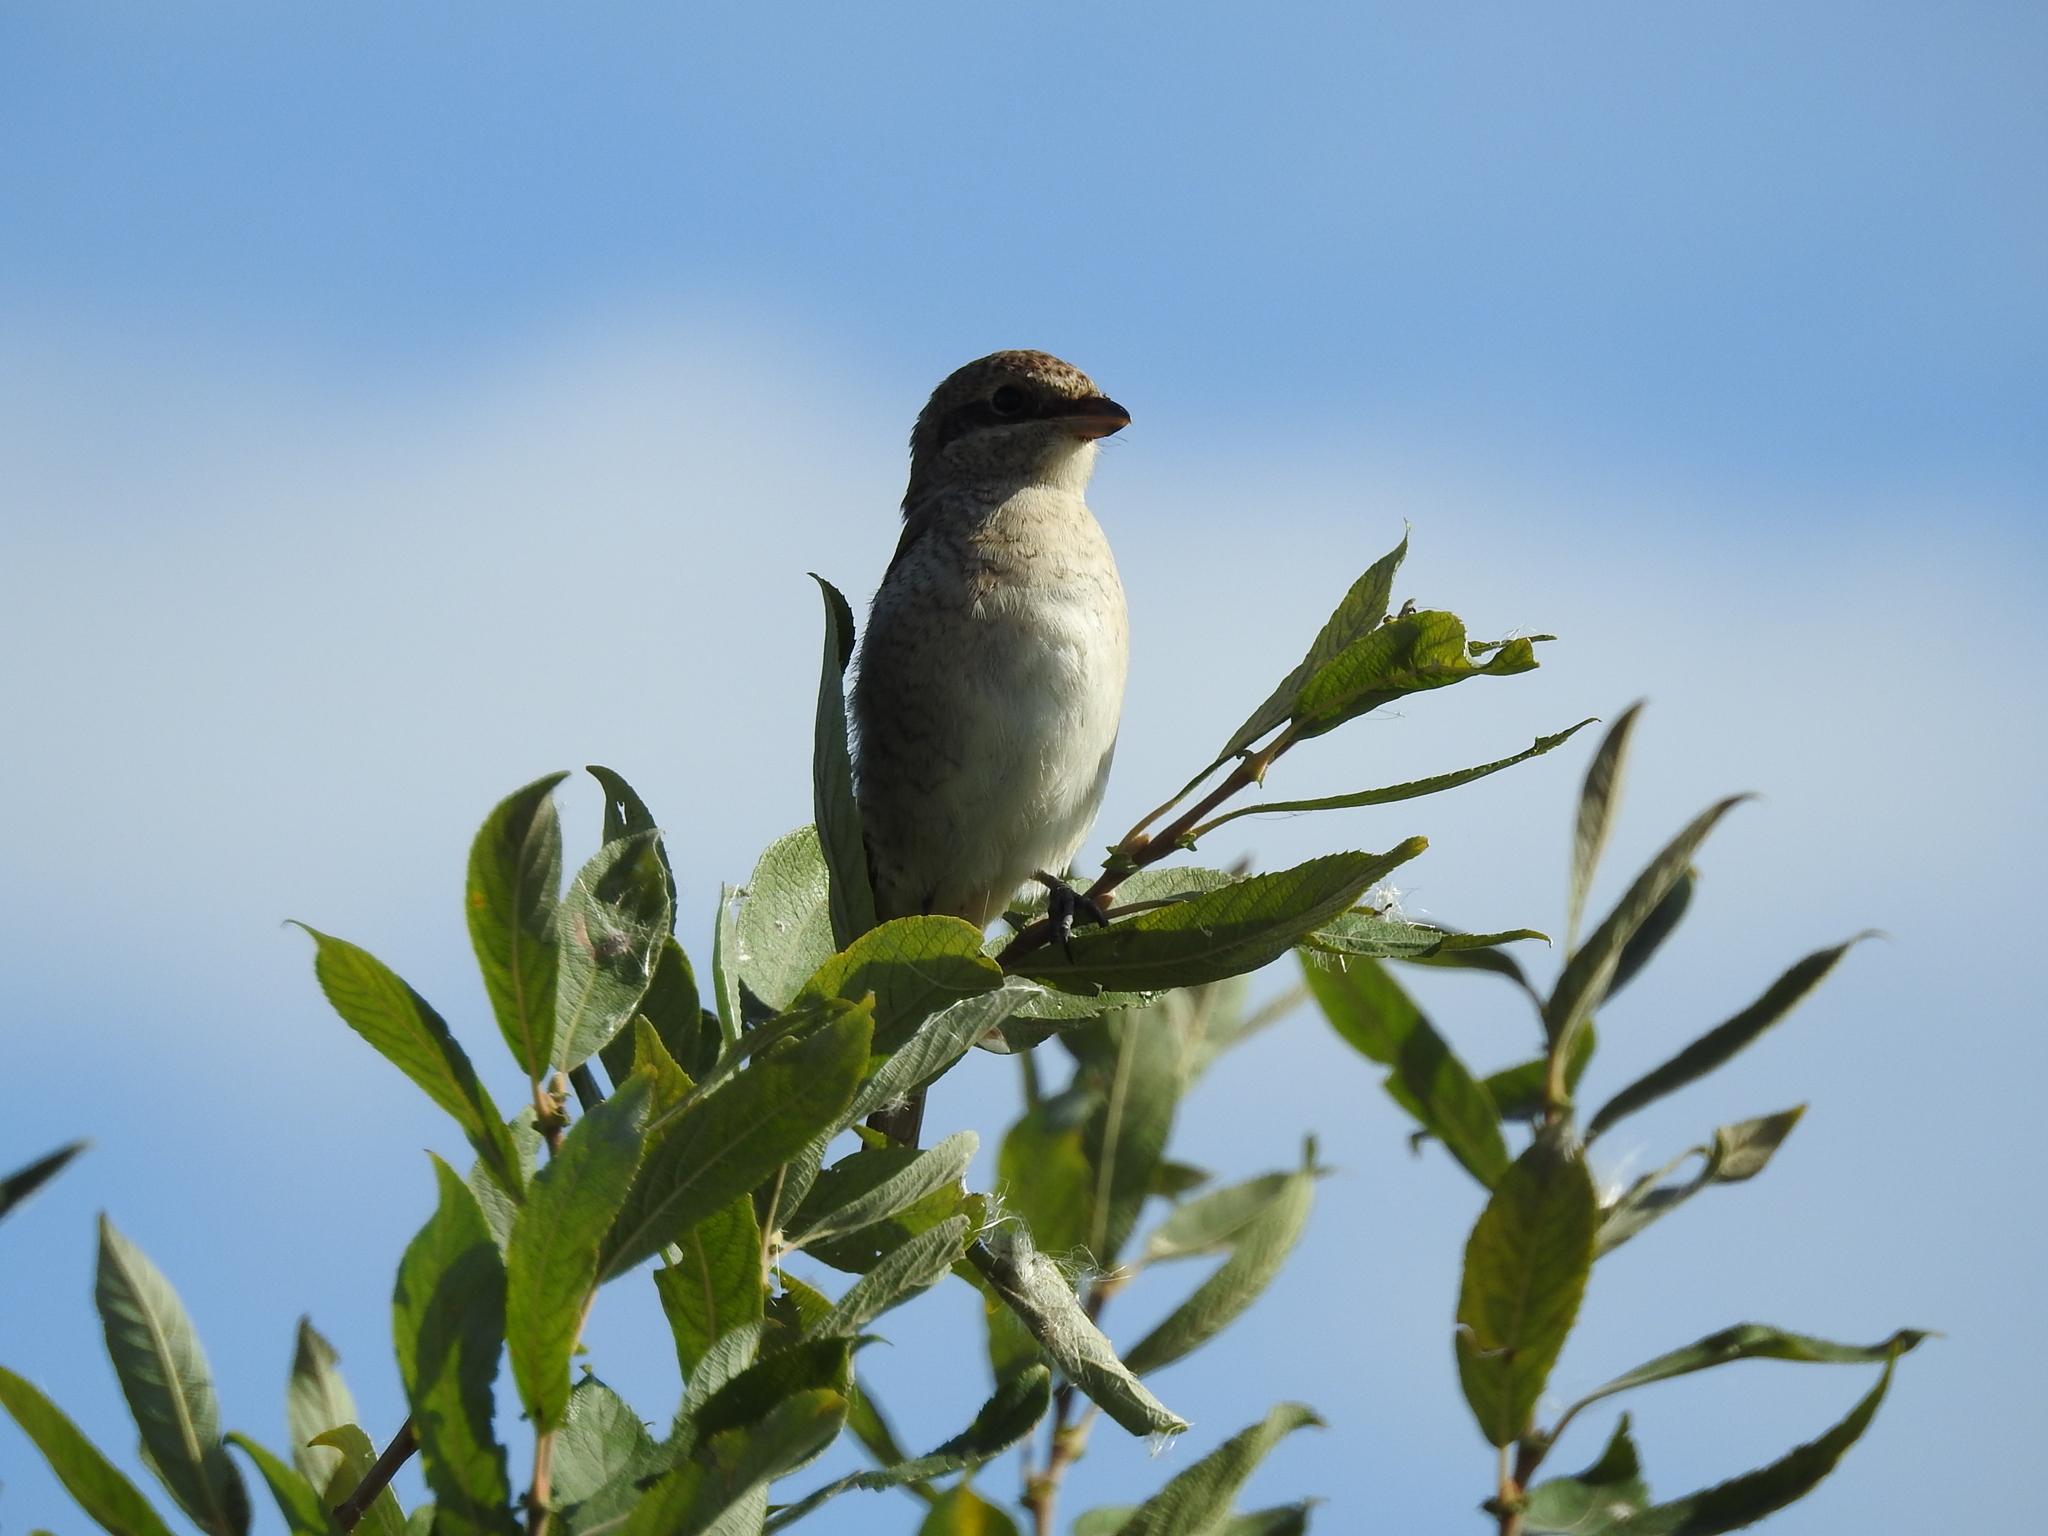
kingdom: Animalia
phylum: Chordata
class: Aves
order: Passeriformes
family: Laniidae
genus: Lanius
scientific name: Lanius collurio
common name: Red-backed shrike
